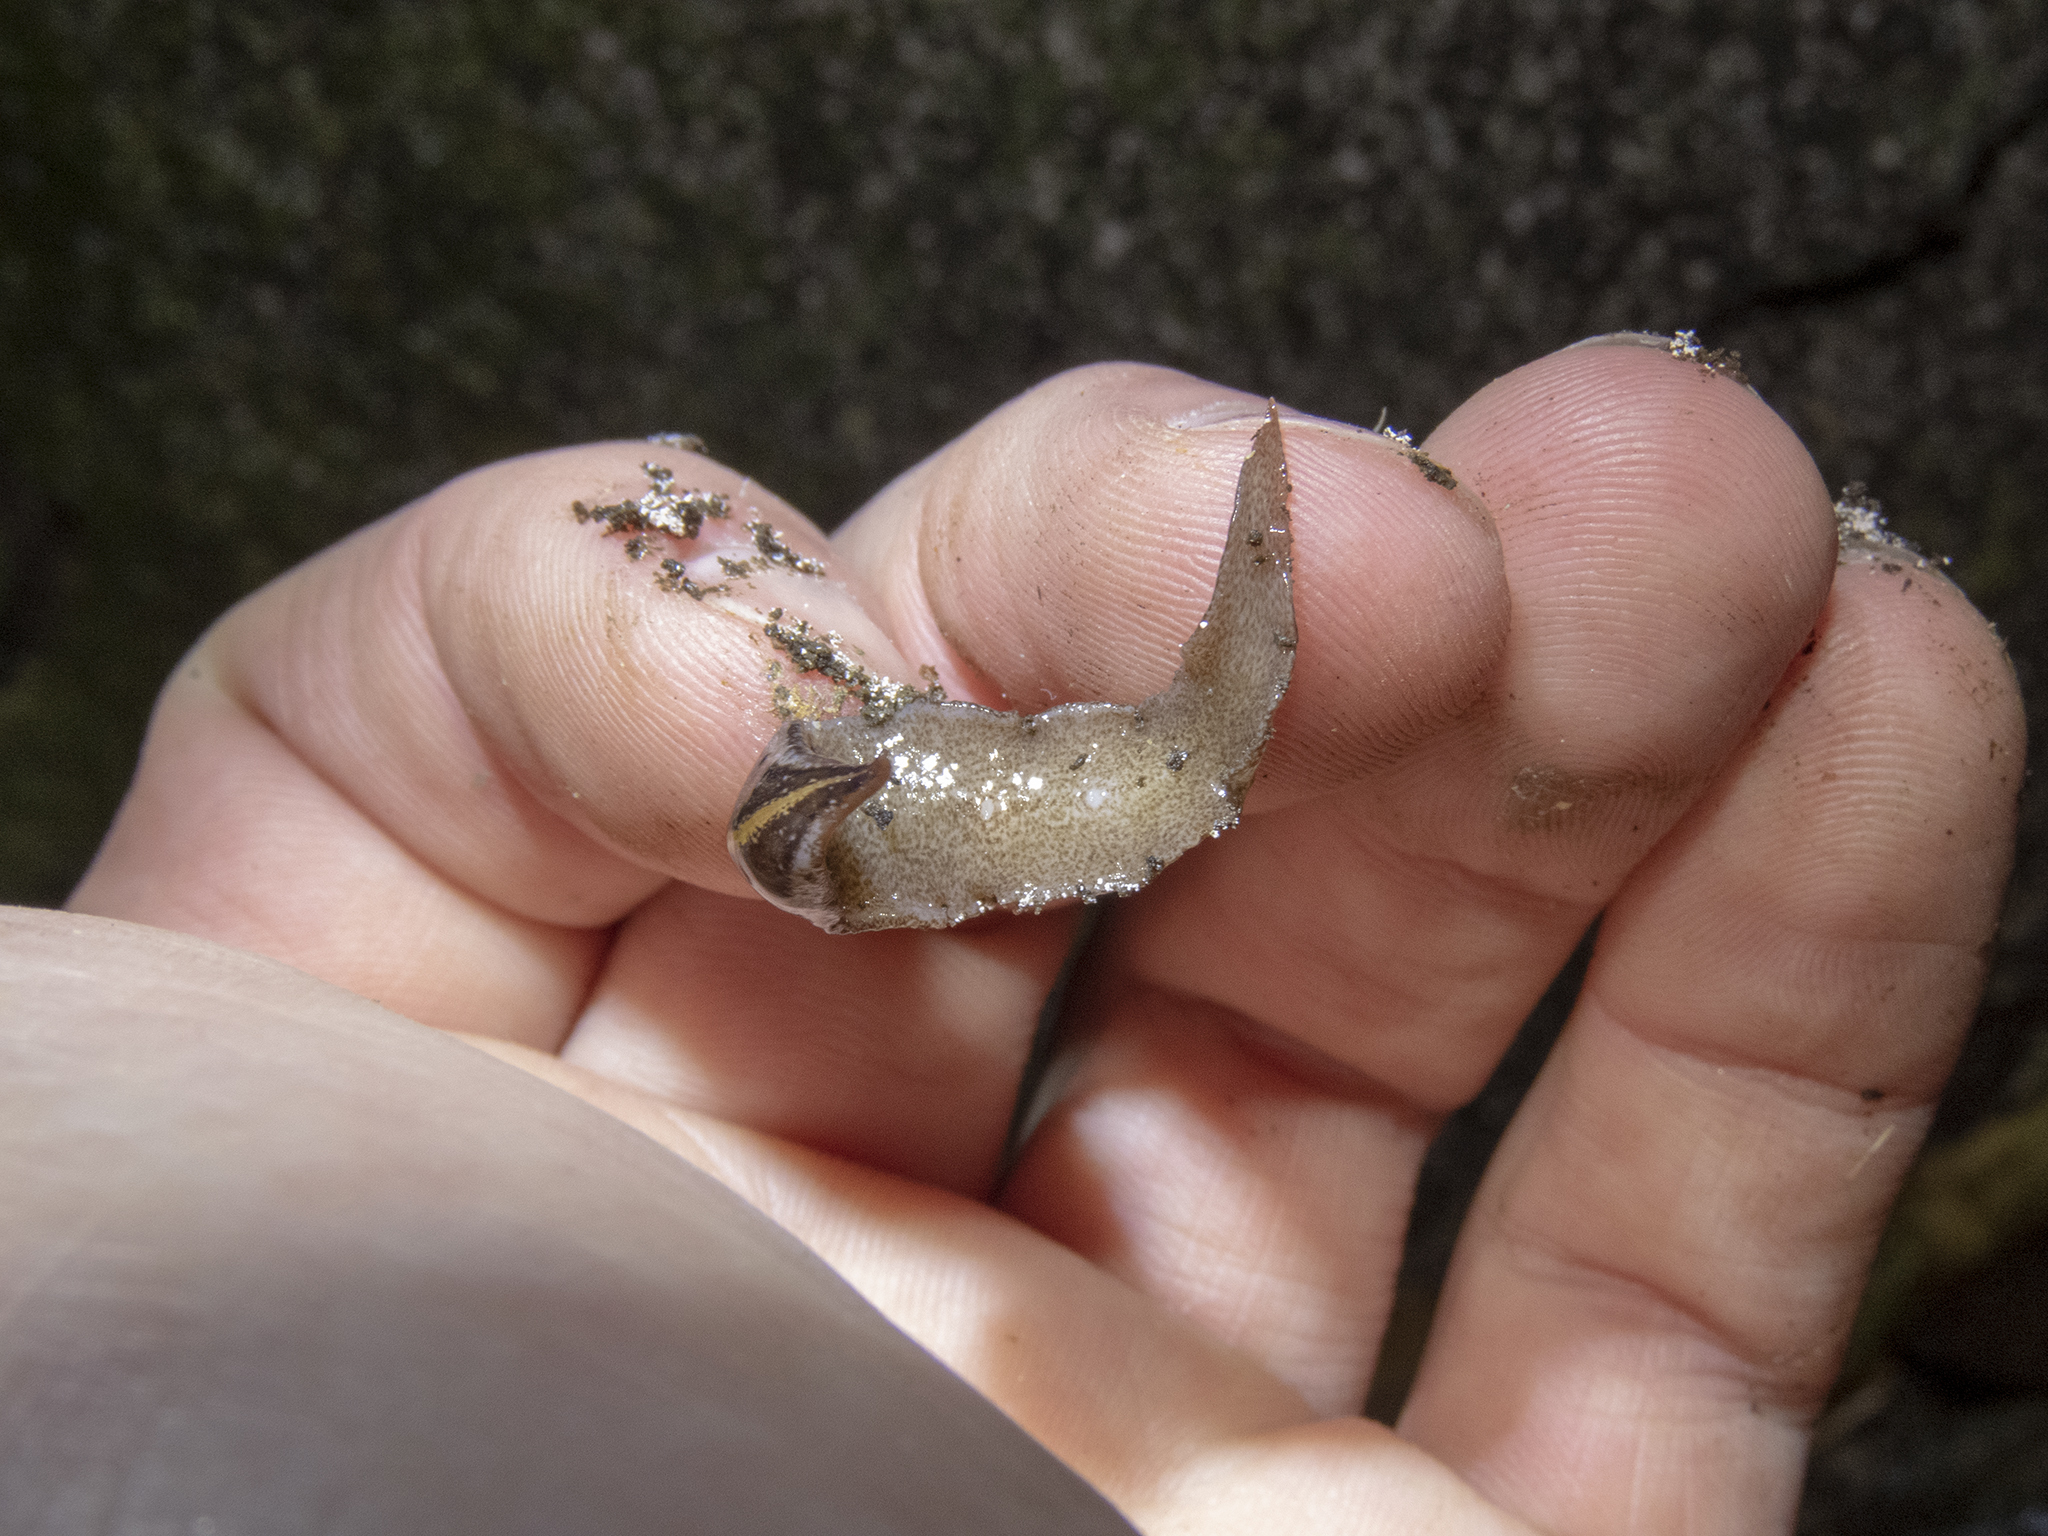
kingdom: Animalia
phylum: Platyhelminthes
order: Tricladida
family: Geoplanidae
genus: Newzealandia
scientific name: Newzealandia graffii
